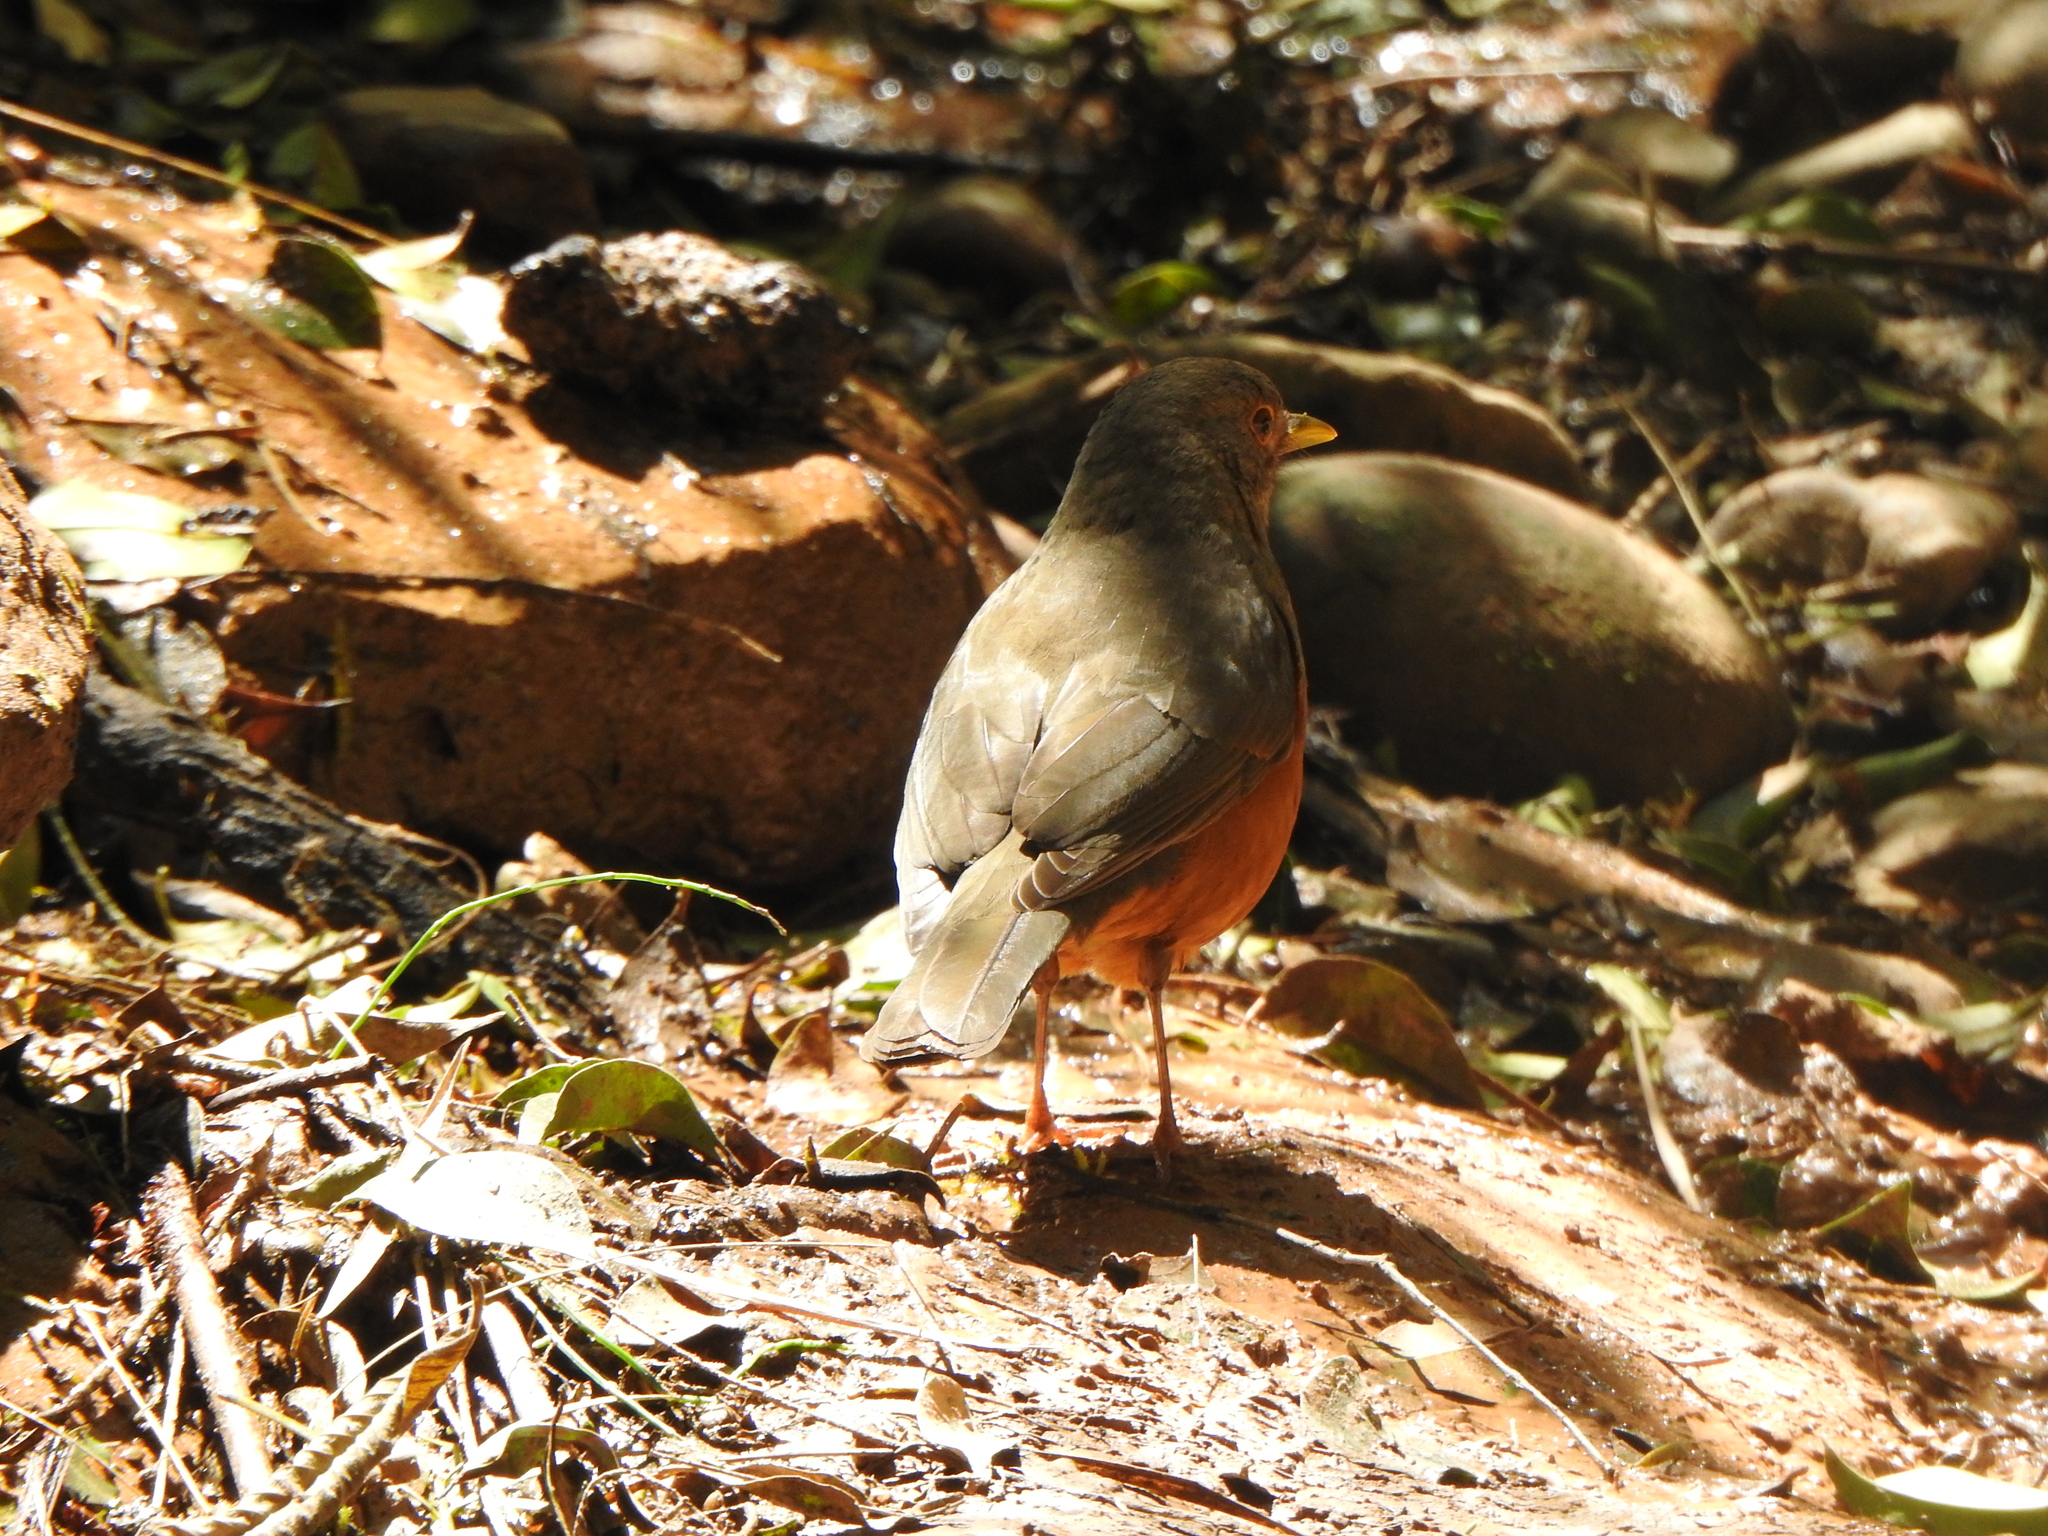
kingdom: Animalia
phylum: Chordata
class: Aves
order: Passeriformes
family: Turdidae
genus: Turdus
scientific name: Turdus rufiventris
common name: Rufous-bellied thrush
